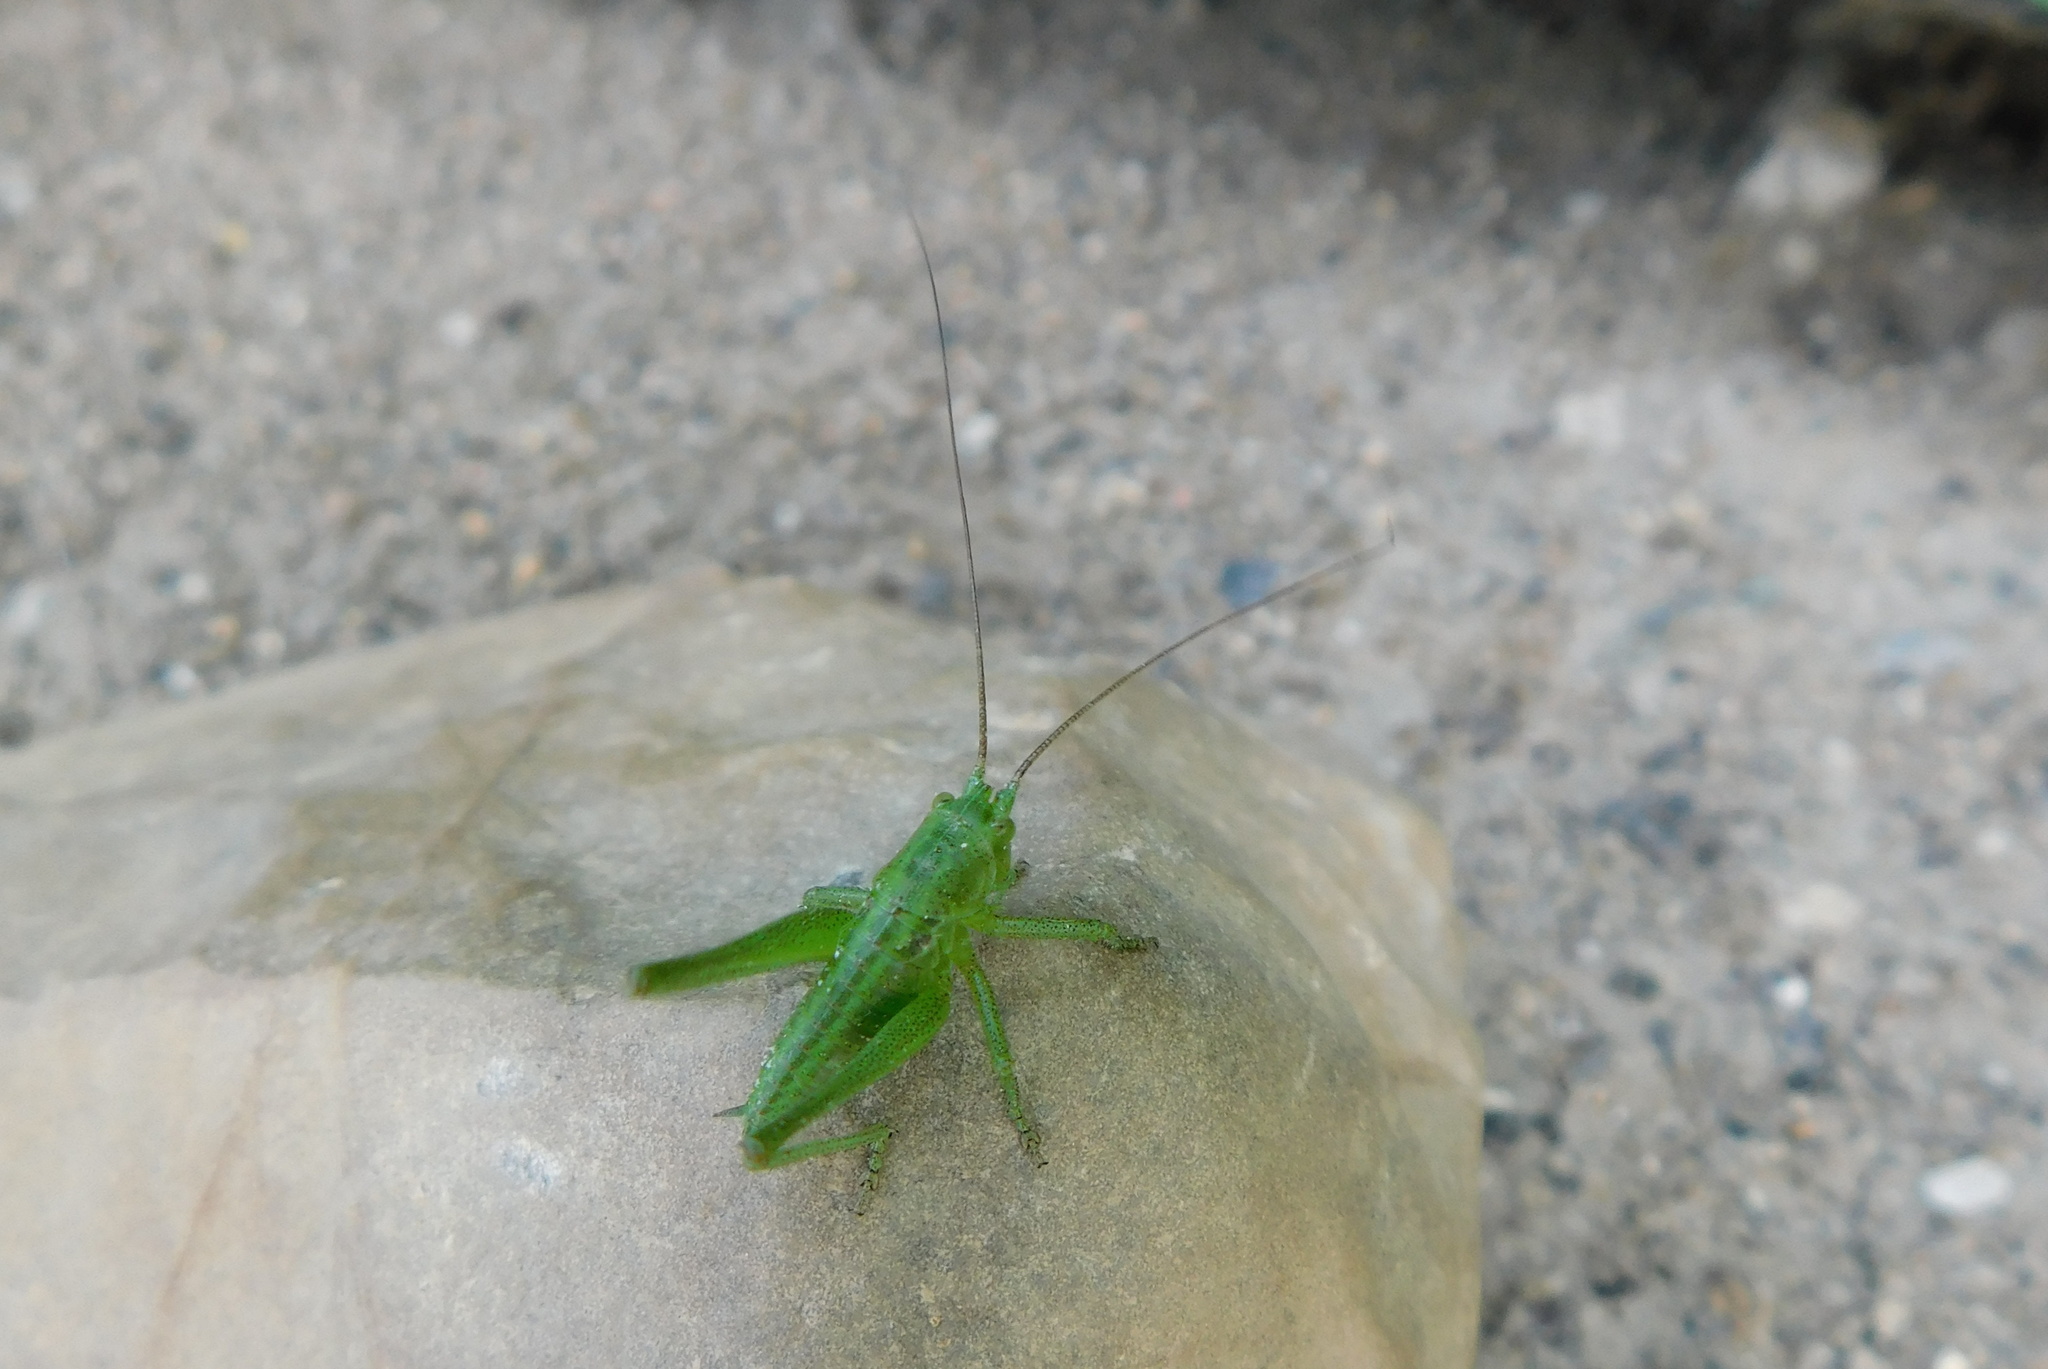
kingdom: Animalia
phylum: Arthropoda
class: Insecta
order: Orthoptera
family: Tettigoniidae
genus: Tettigonia
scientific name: Tettigonia viridissima
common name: Great green bush-cricket
